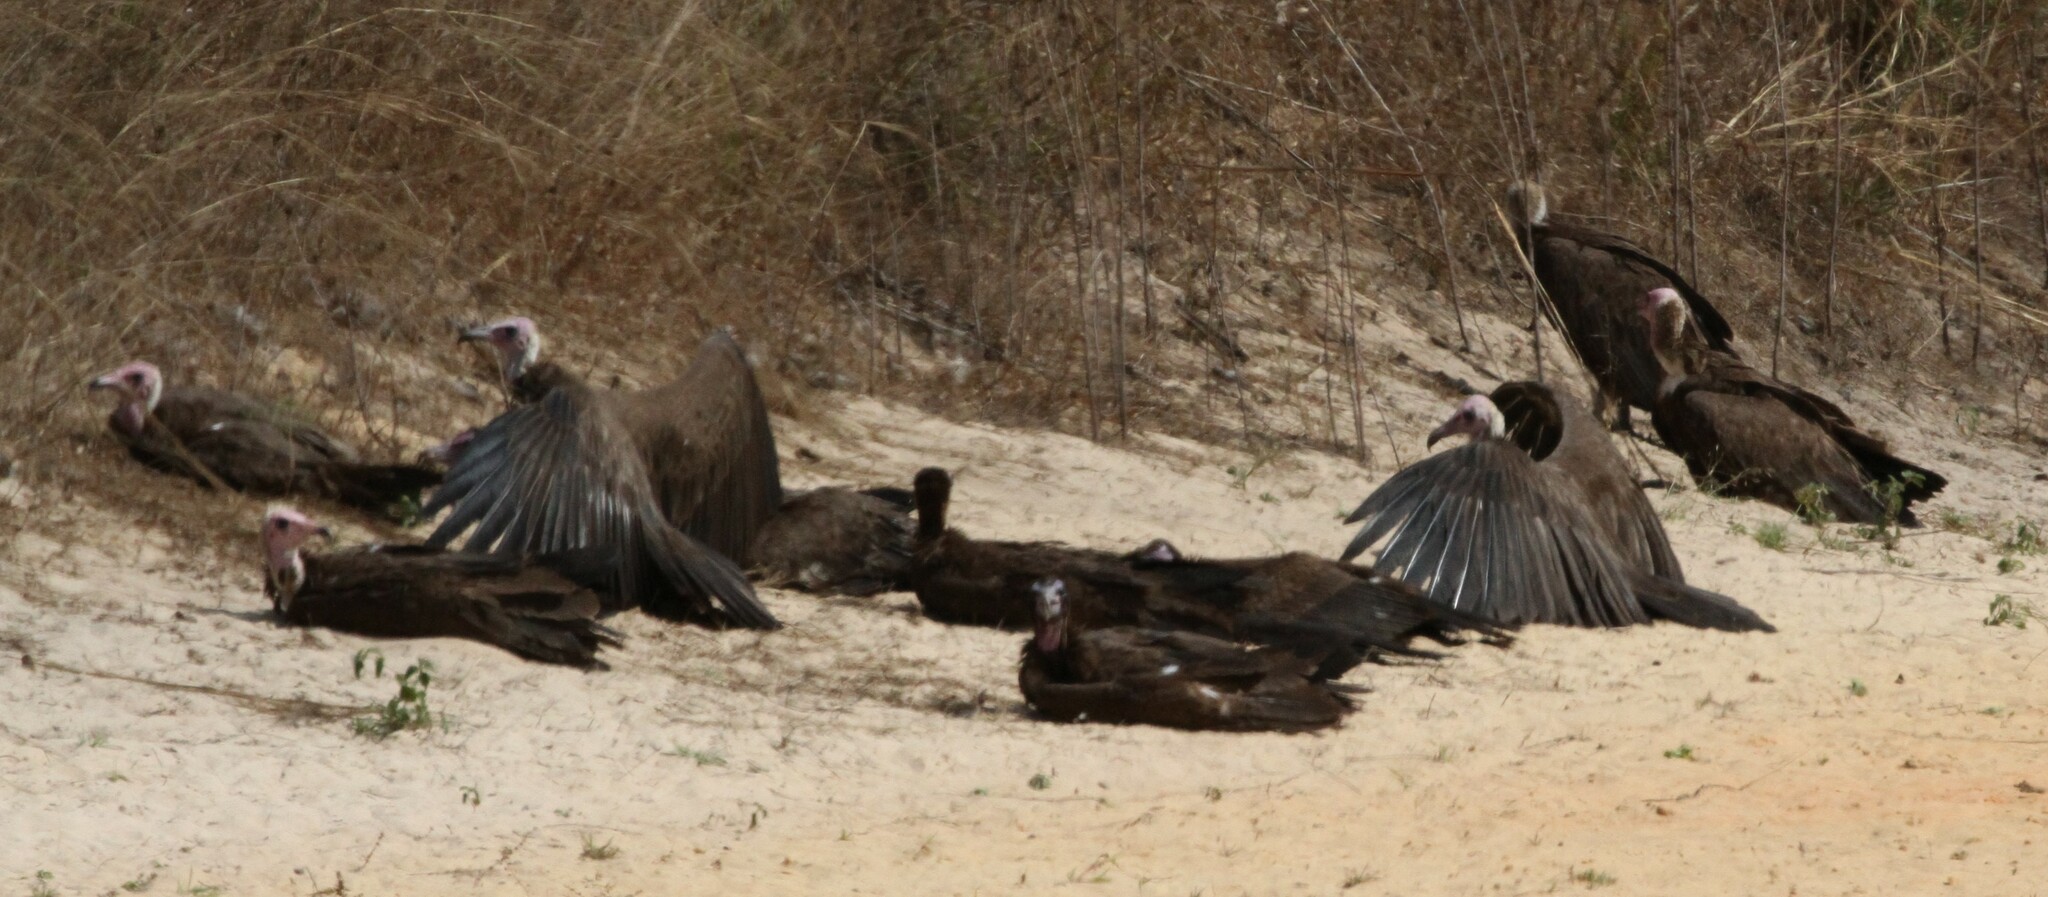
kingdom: Animalia
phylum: Chordata
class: Aves
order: Accipitriformes
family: Accipitridae
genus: Necrosyrtes
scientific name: Necrosyrtes monachus
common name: Hooded vulture
